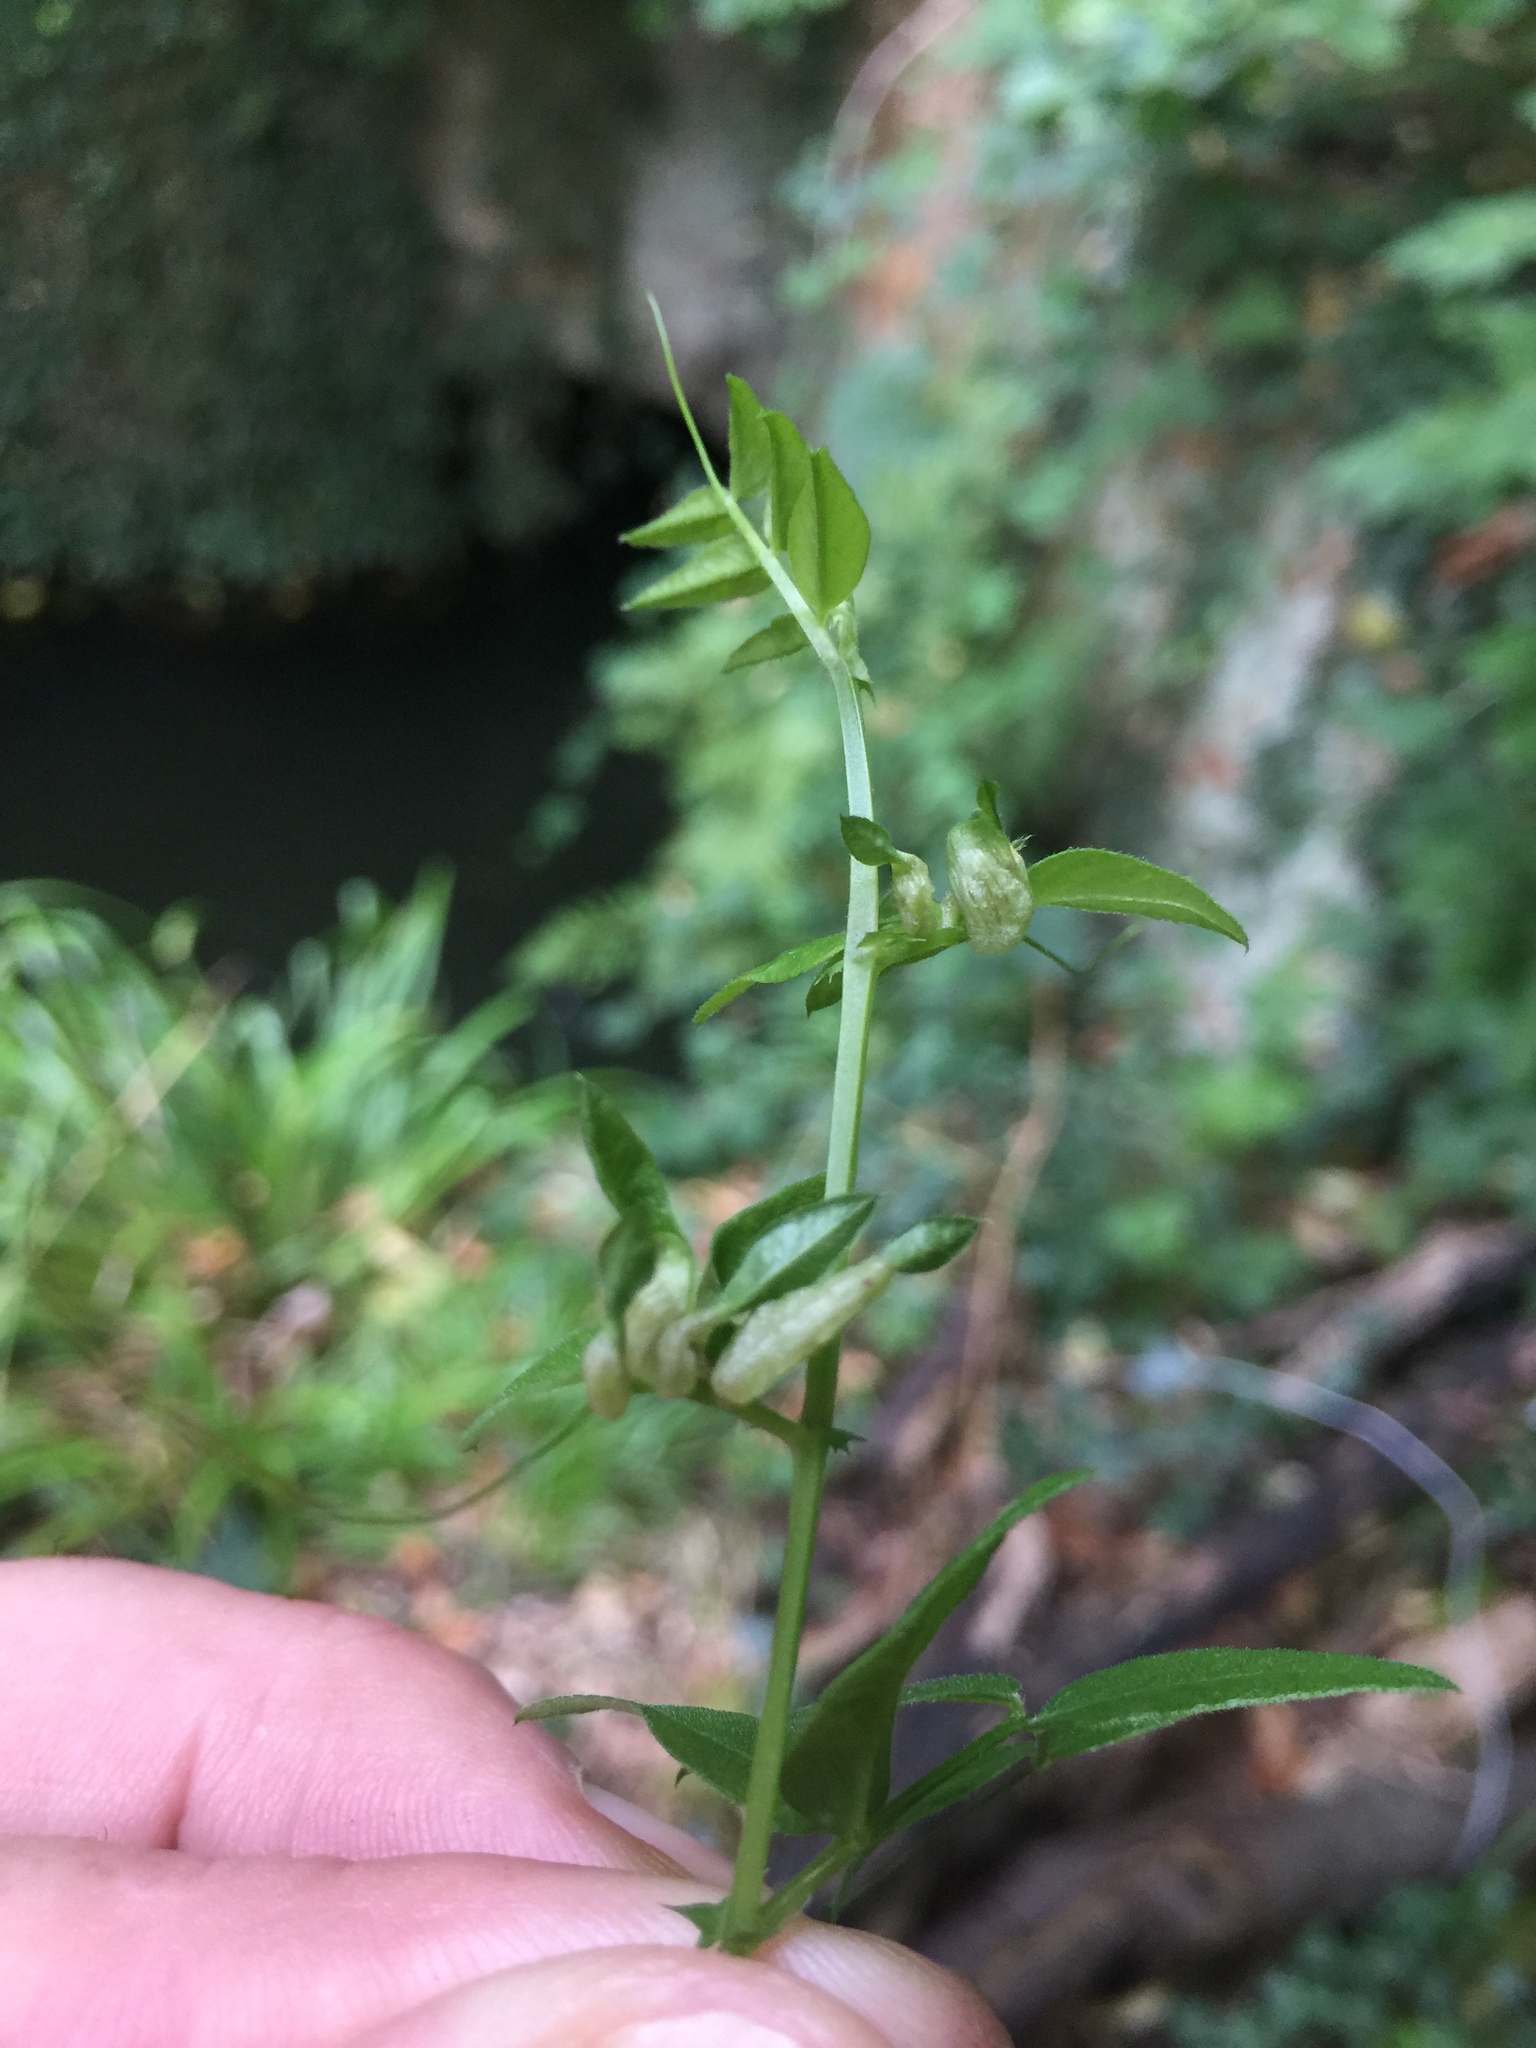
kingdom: Animalia
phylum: Arthropoda
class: Insecta
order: Diptera
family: Cecidomyiidae
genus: Dasineura
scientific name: Dasineura viciae
